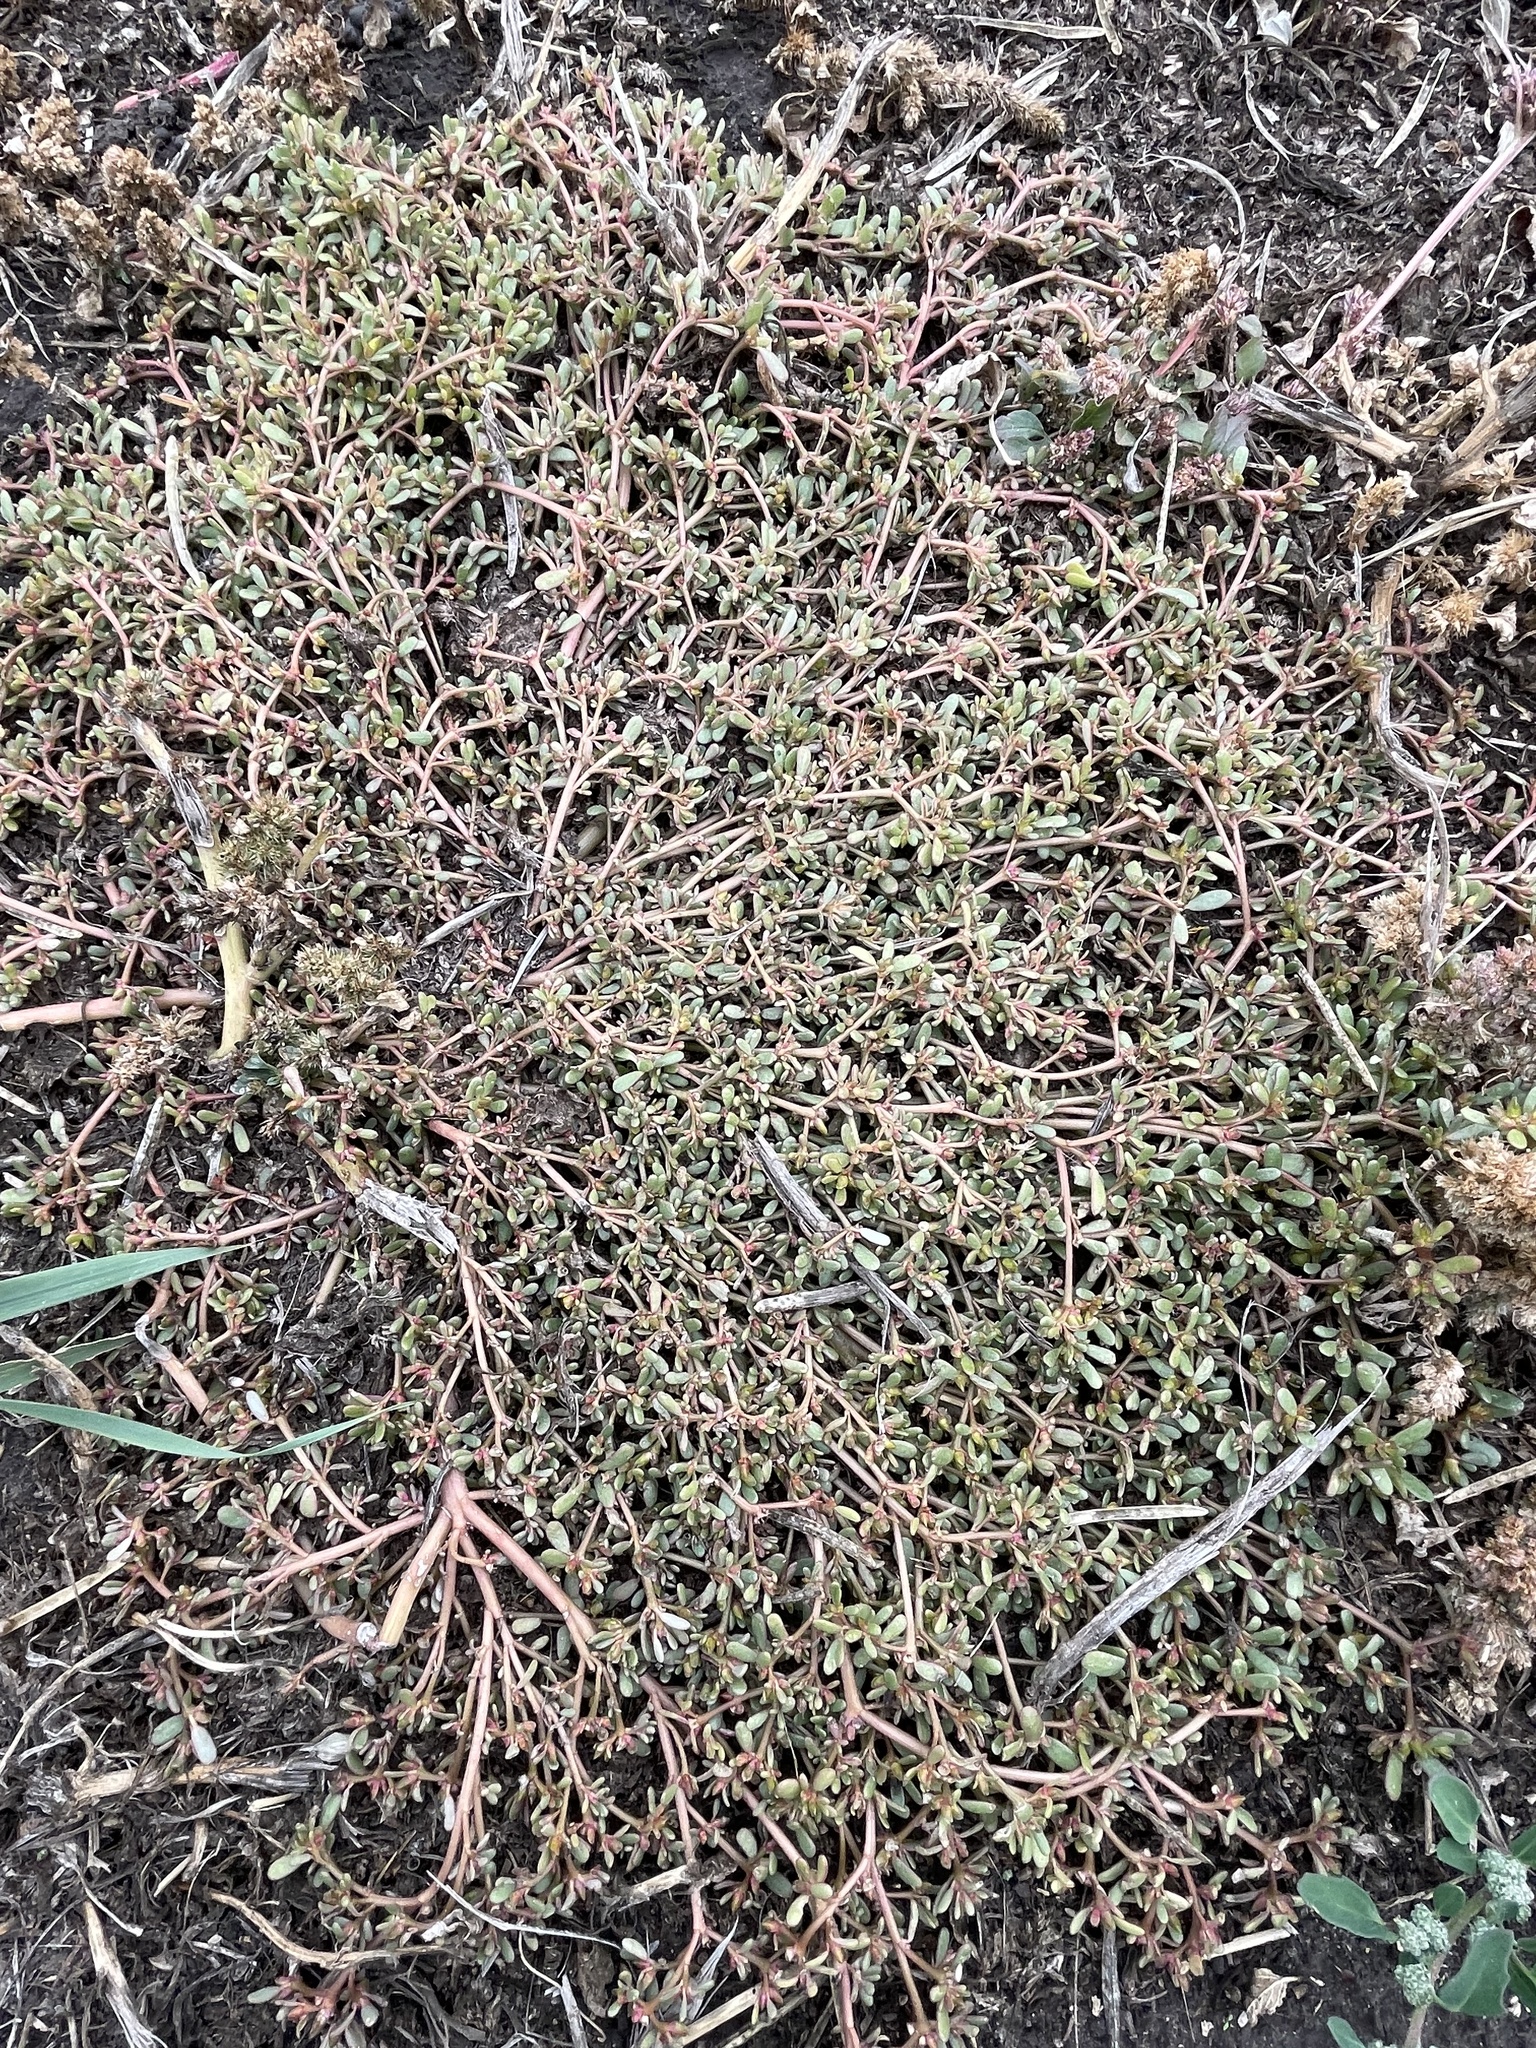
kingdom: Plantae
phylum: Tracheophyta
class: Magnoliopsida
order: Caryophyllales
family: Portulacaceae
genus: Portulaca
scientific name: Portulaca oleracea
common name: Common purslane
